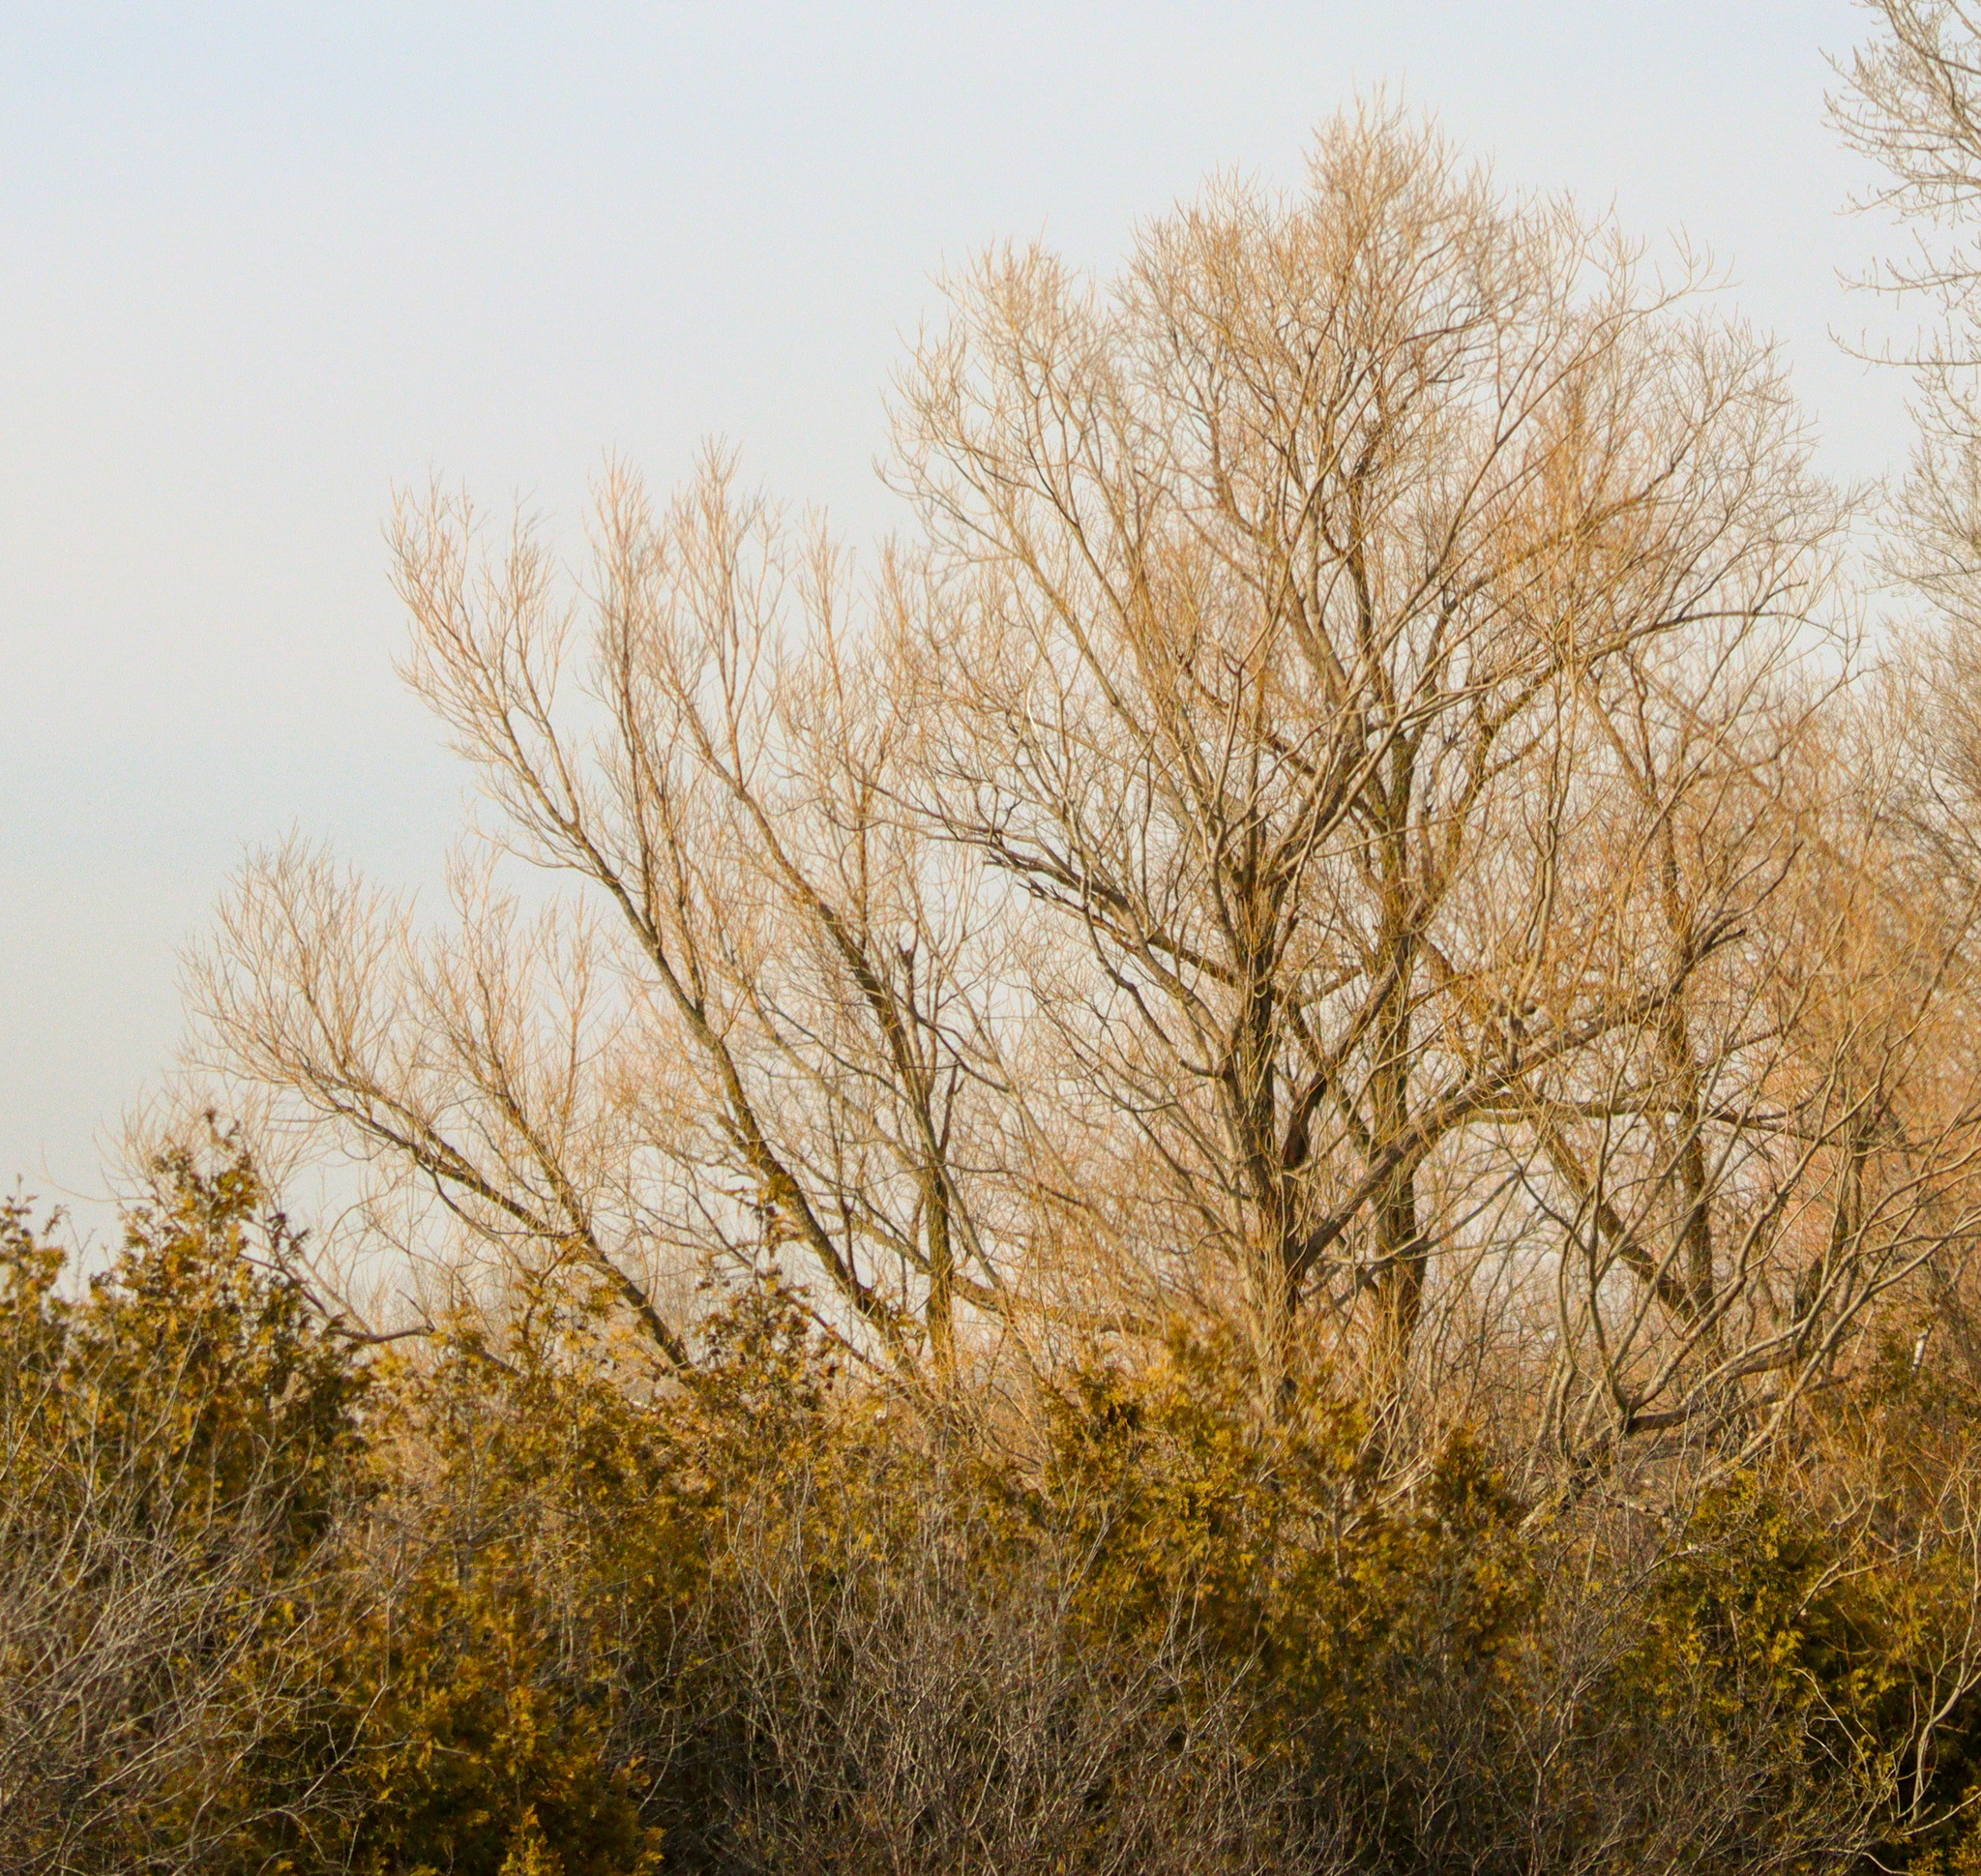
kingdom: Plantae
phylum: Tracheophyta
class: Magnoliopsida
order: Malpighiales
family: Salicaceae
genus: Salix
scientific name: Salix pendulina
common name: Wisconsin weeping willow
